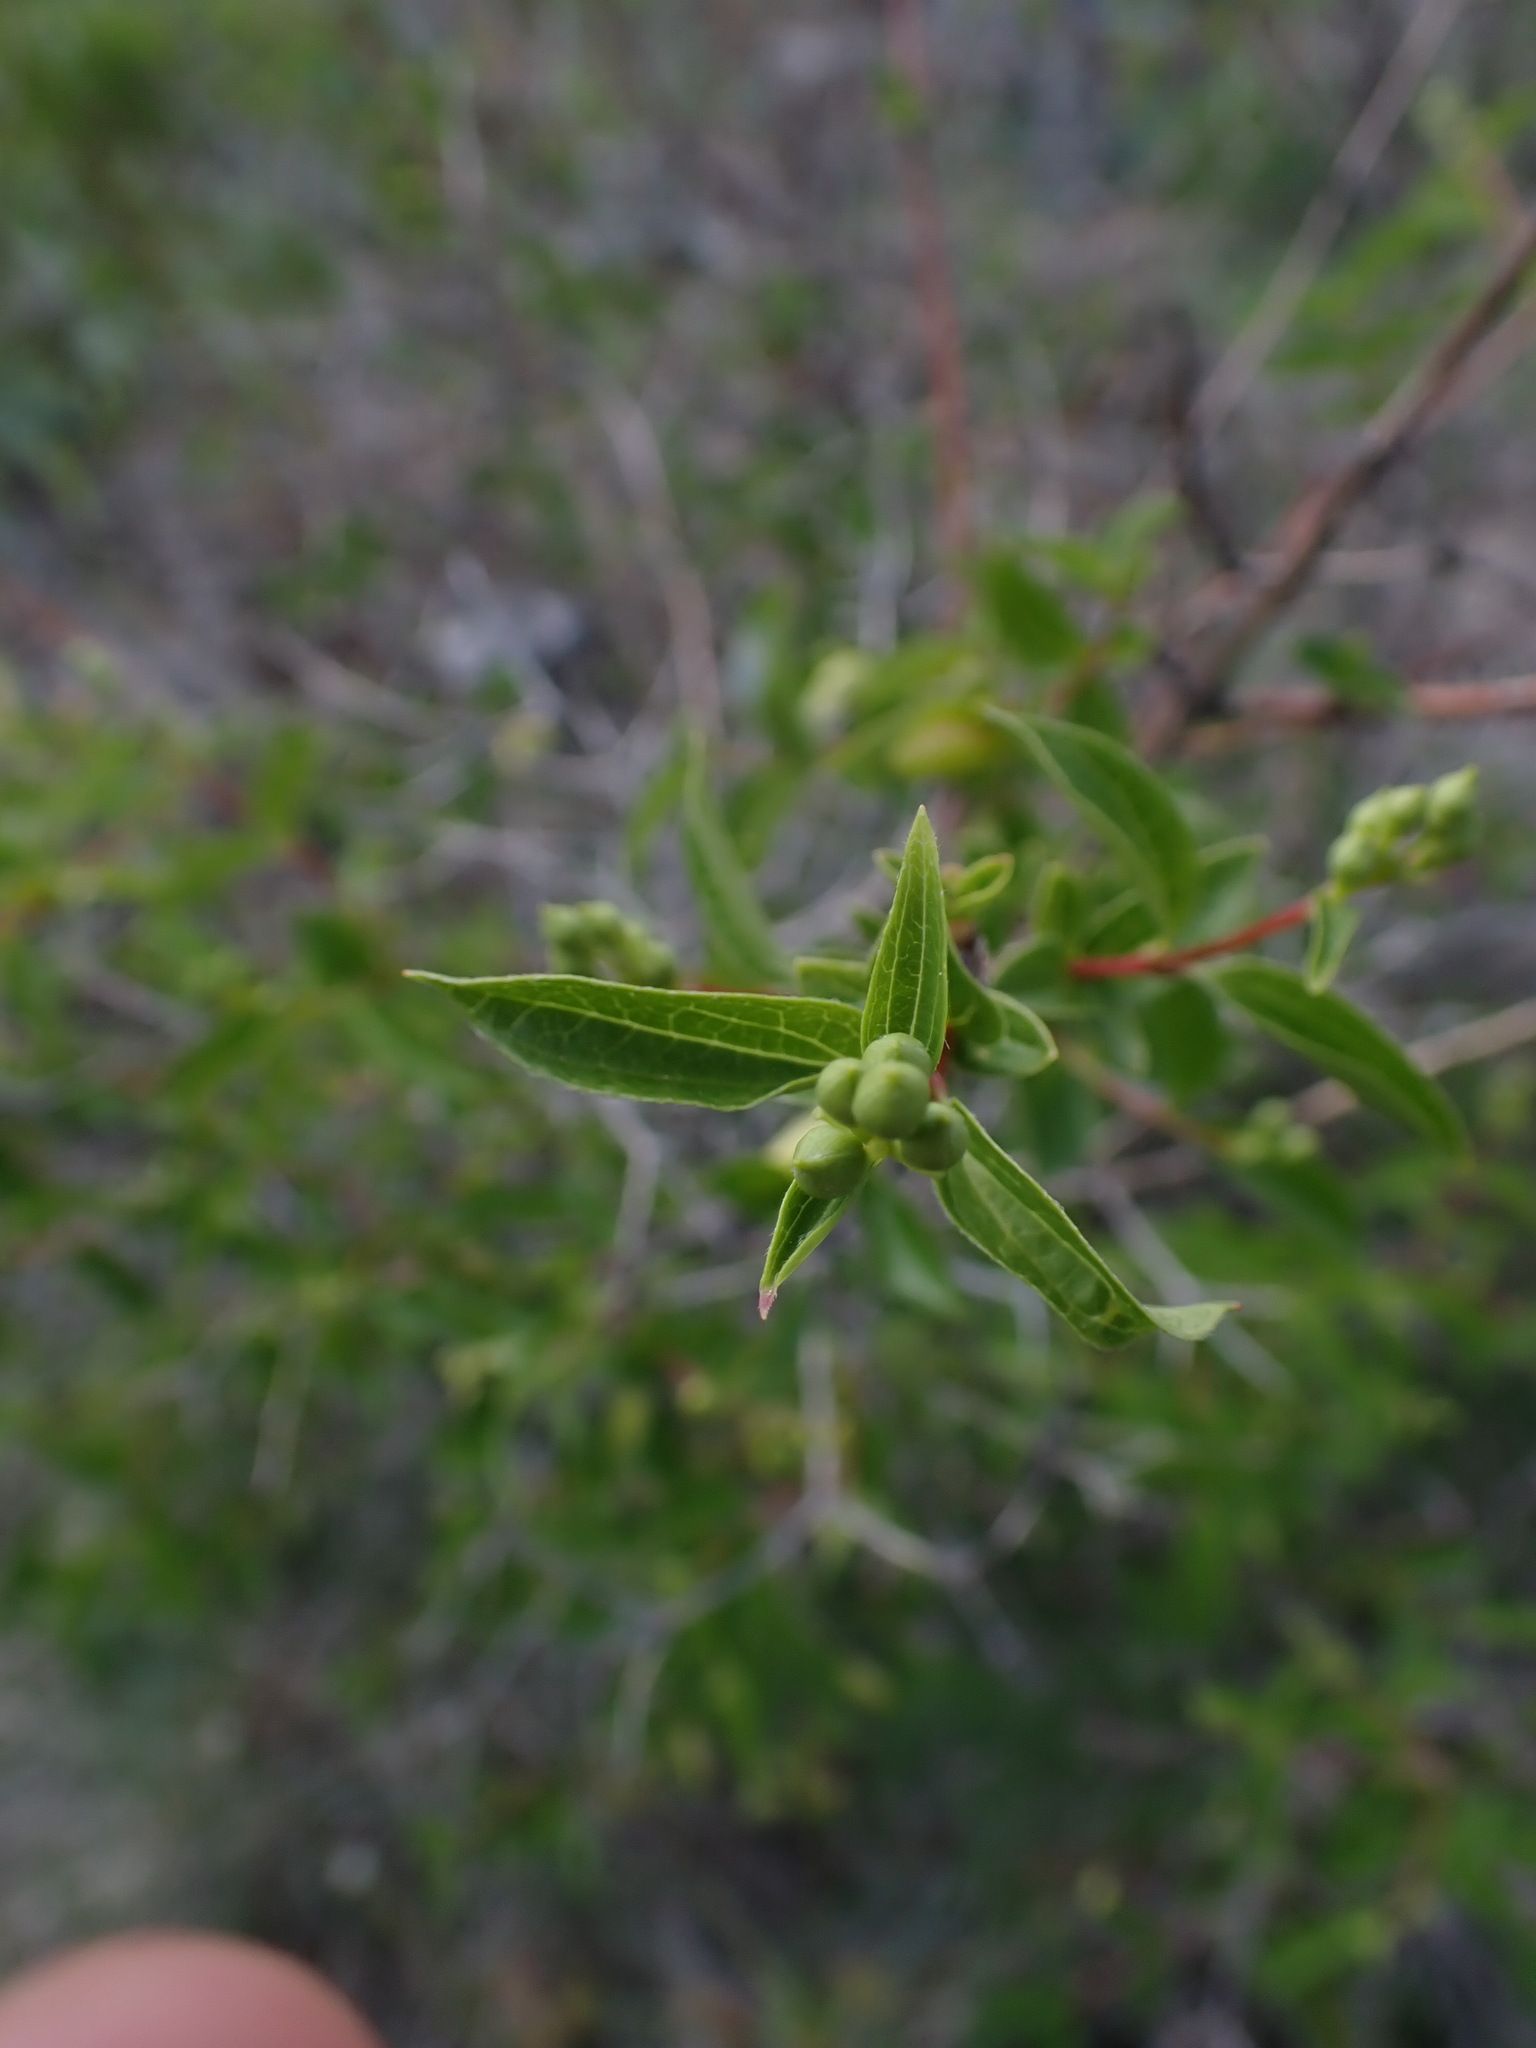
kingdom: Plantae
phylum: Tracheophyta
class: Magnoliopsida
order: Cornales
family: Hydrangeaceae
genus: Philadelphus
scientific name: Philadelphus lewisii
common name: Lewis's mock orange
